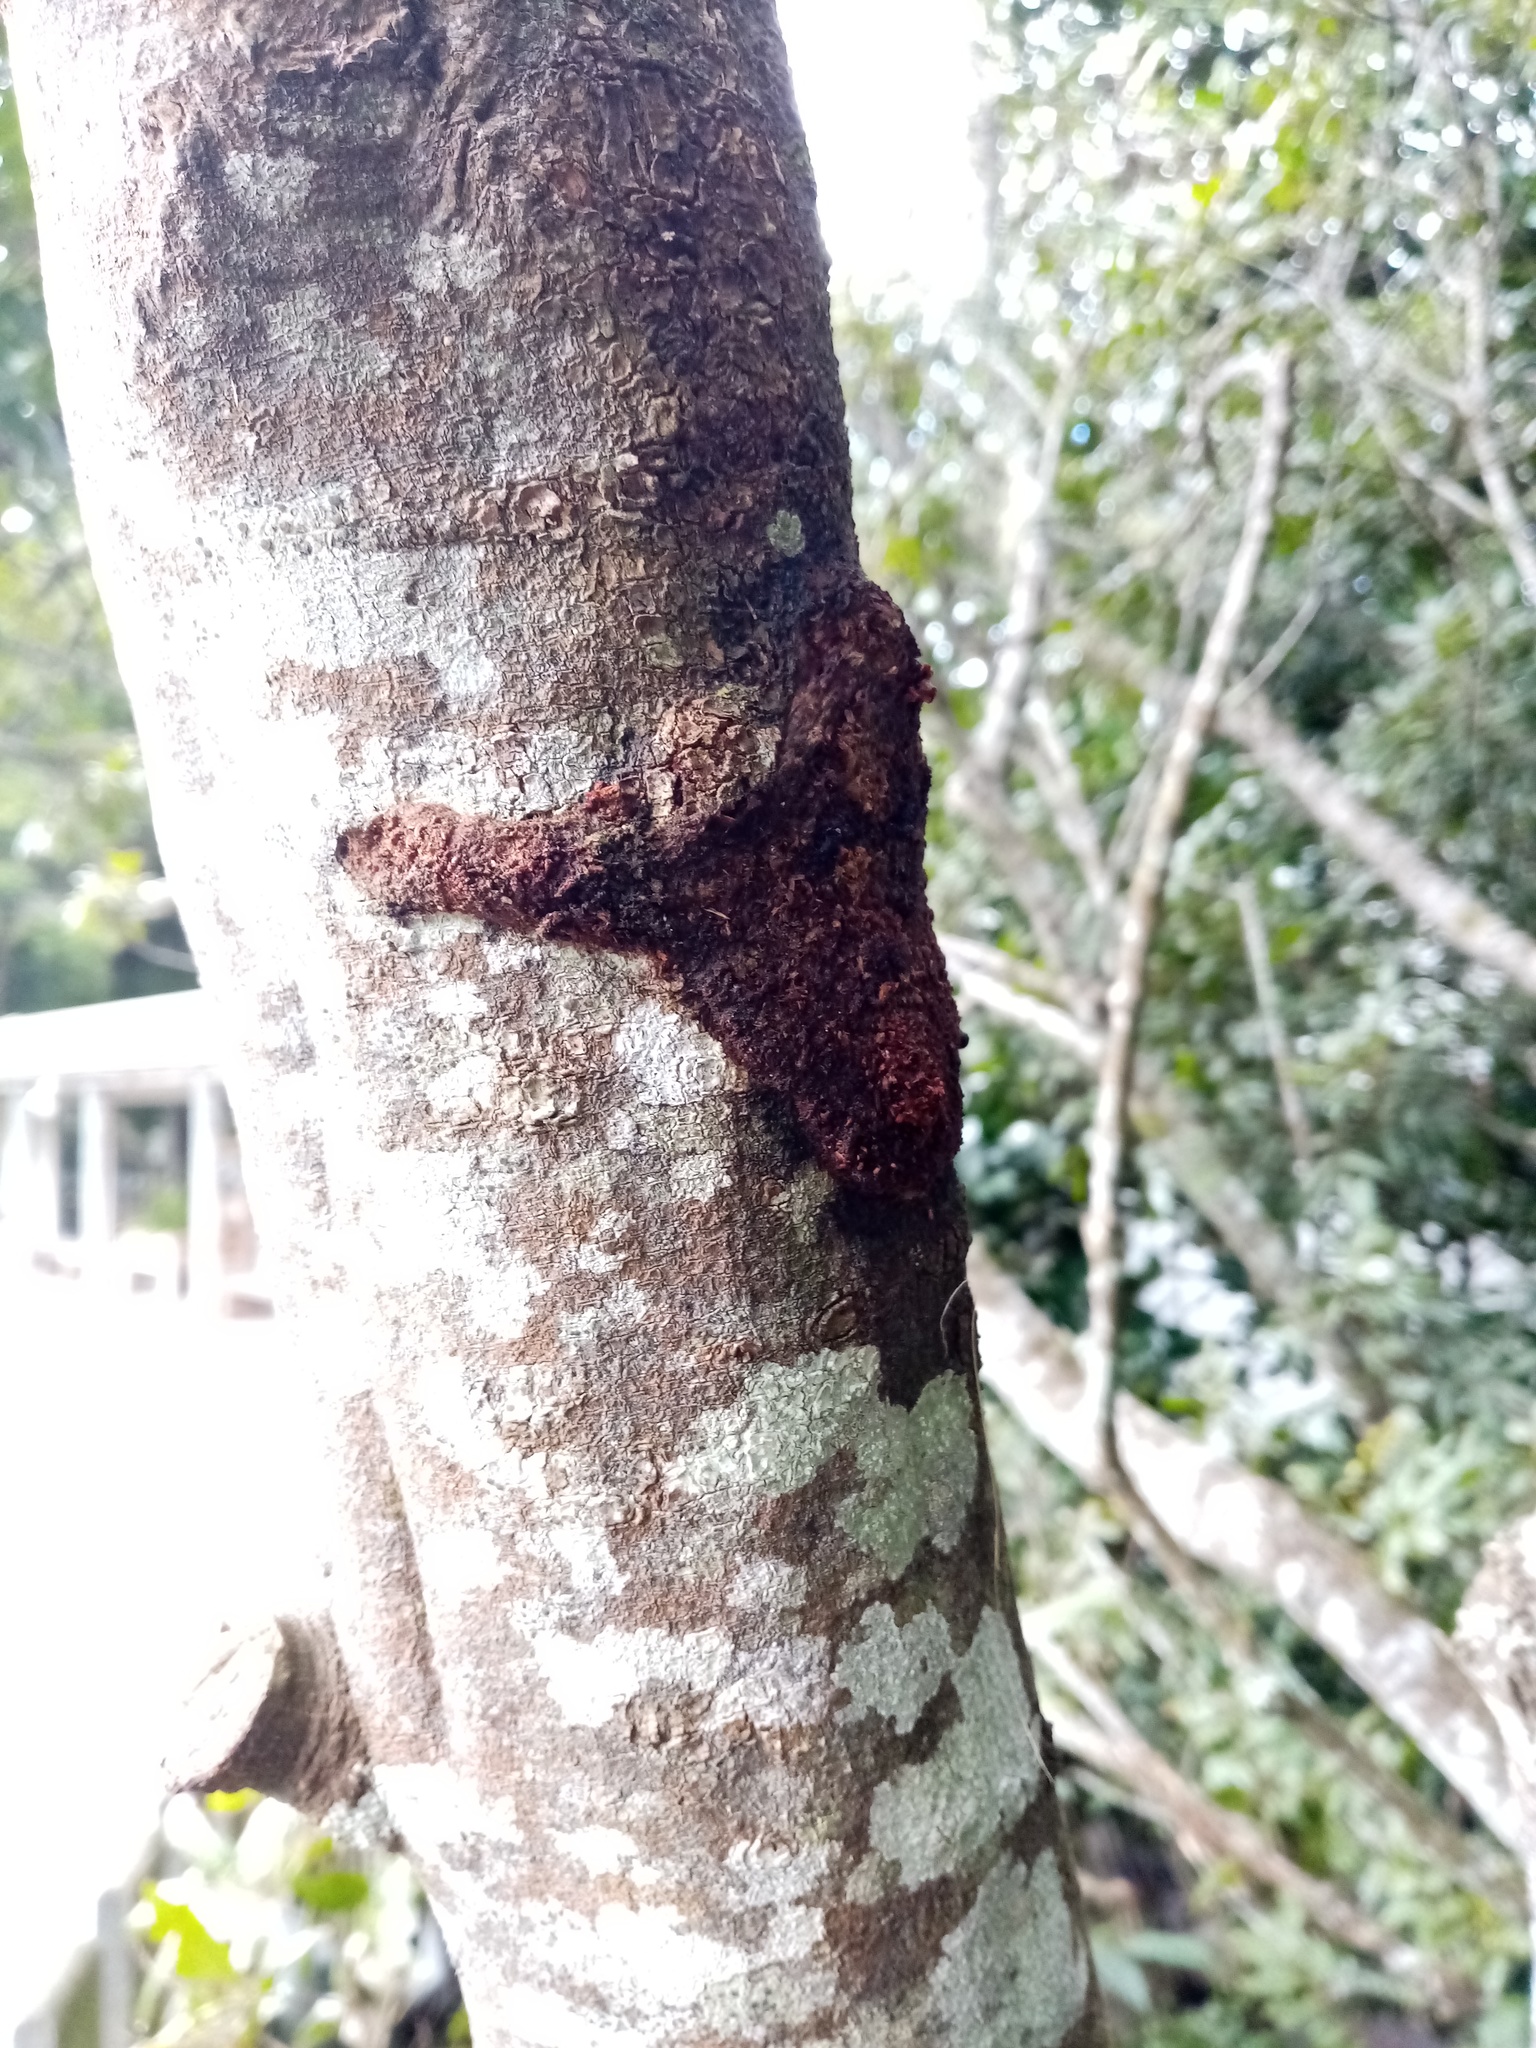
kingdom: Animalia
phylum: Arthropoda
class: Insecta
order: Lepidoptera
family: Hepialidae
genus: Aenetus
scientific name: Aenetus virescens
